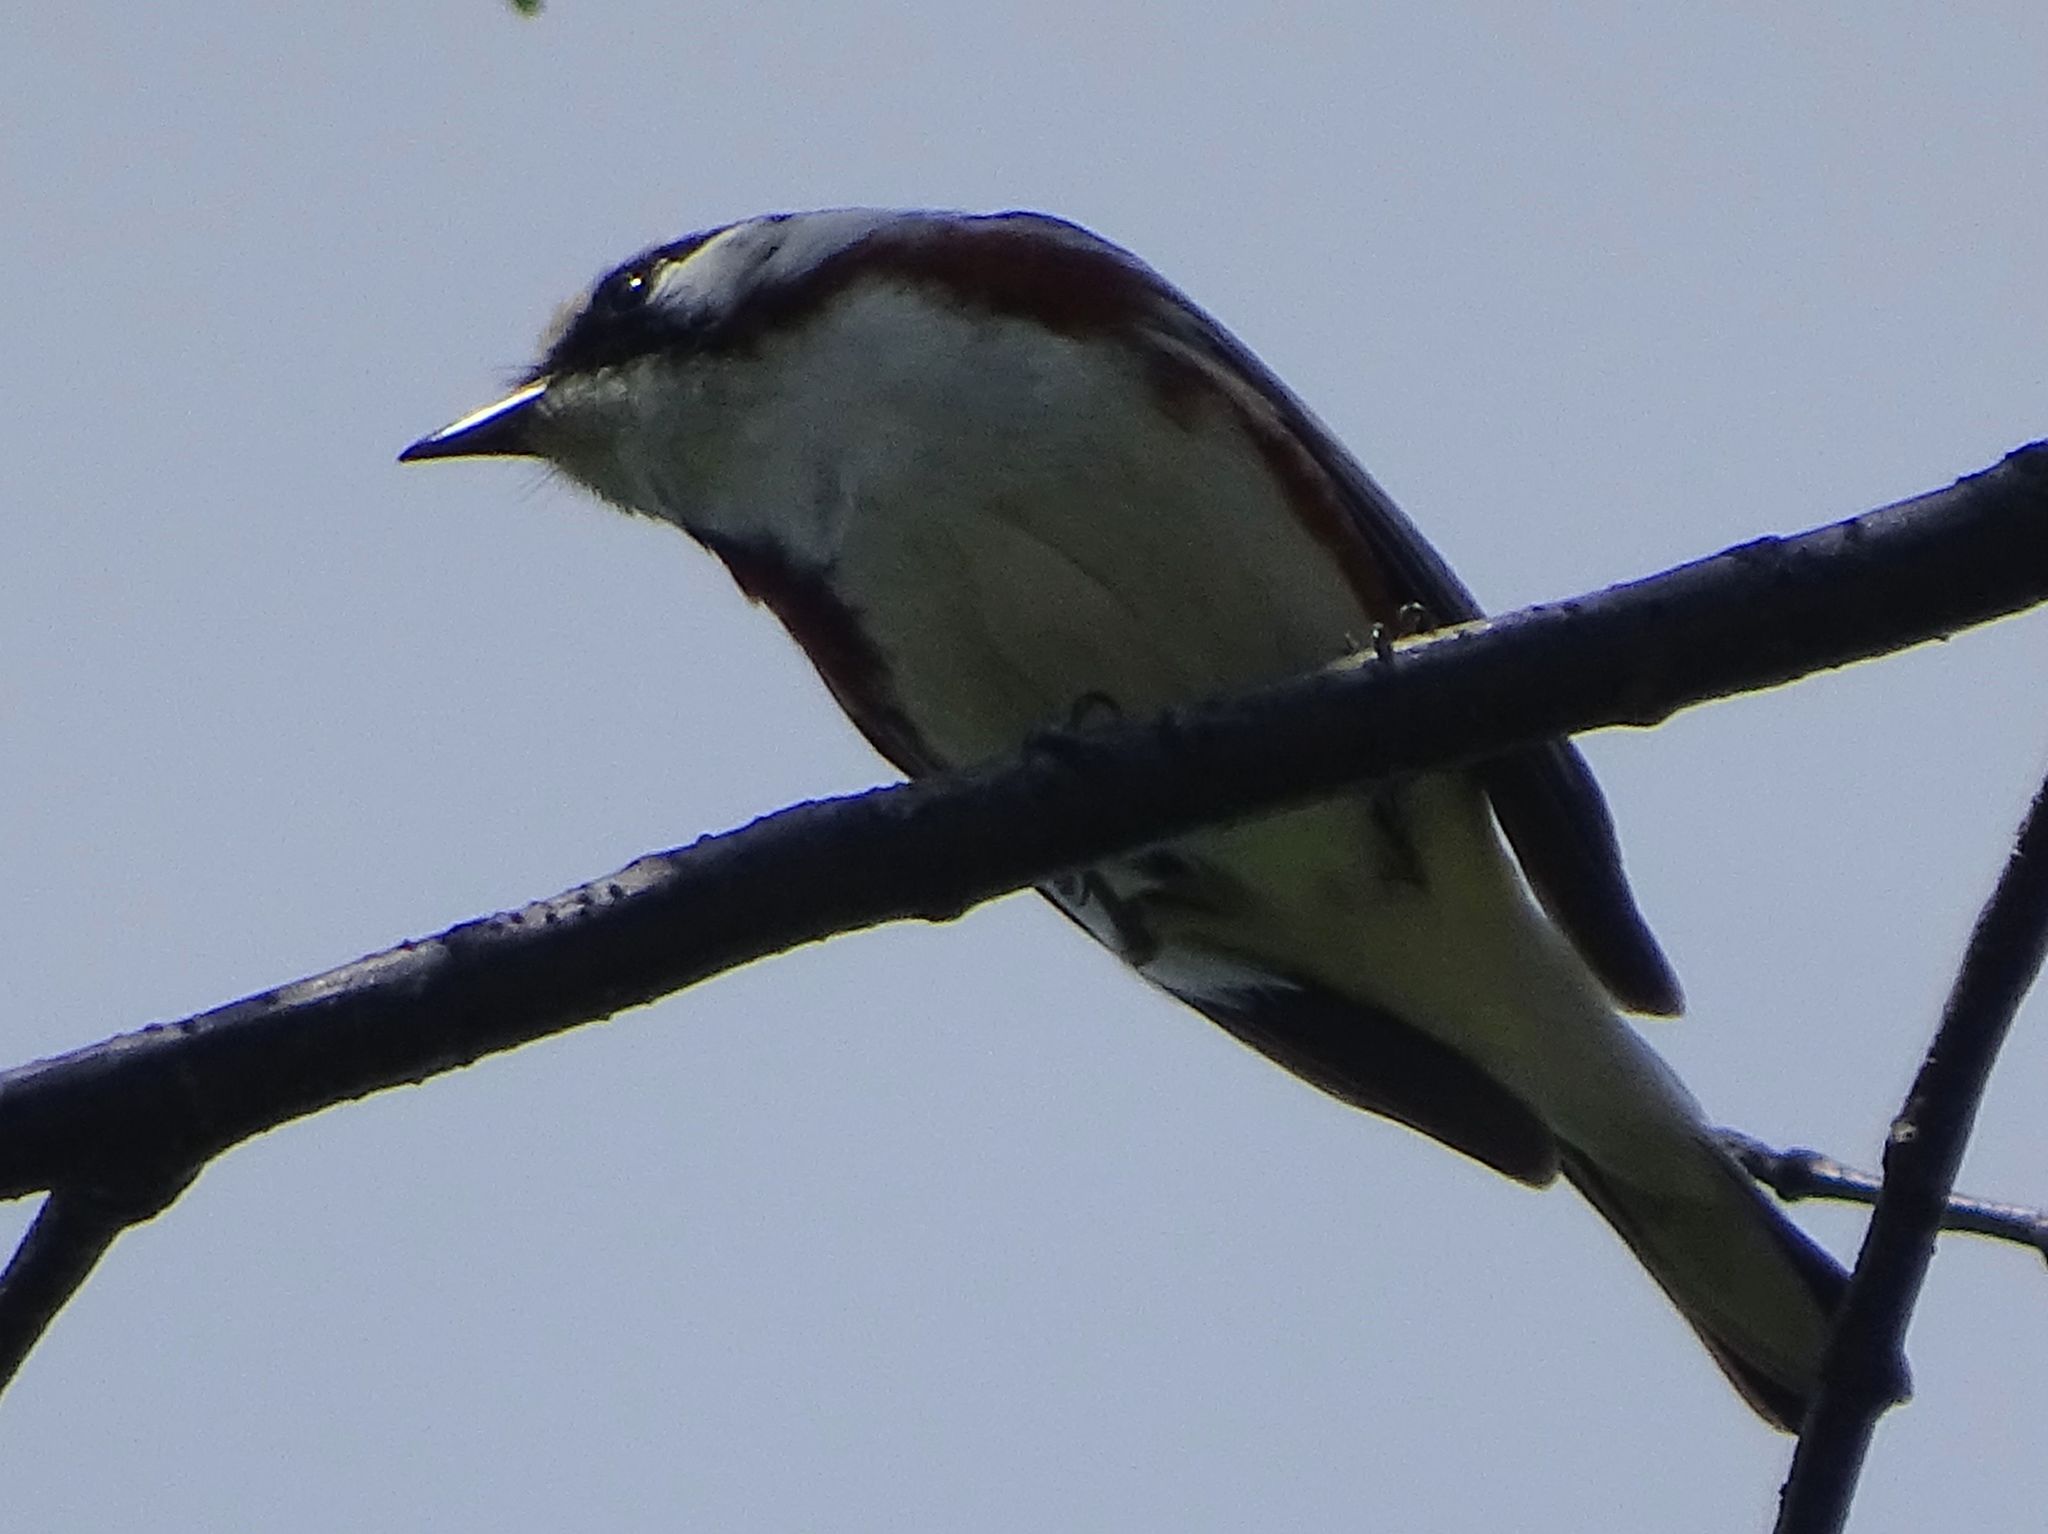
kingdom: Animalia
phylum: Chordata
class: Aves
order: Passeriformes
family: Parulidae
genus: Setophaga
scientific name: Setophaga pensylvanica
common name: Chestnut-sided warbler
